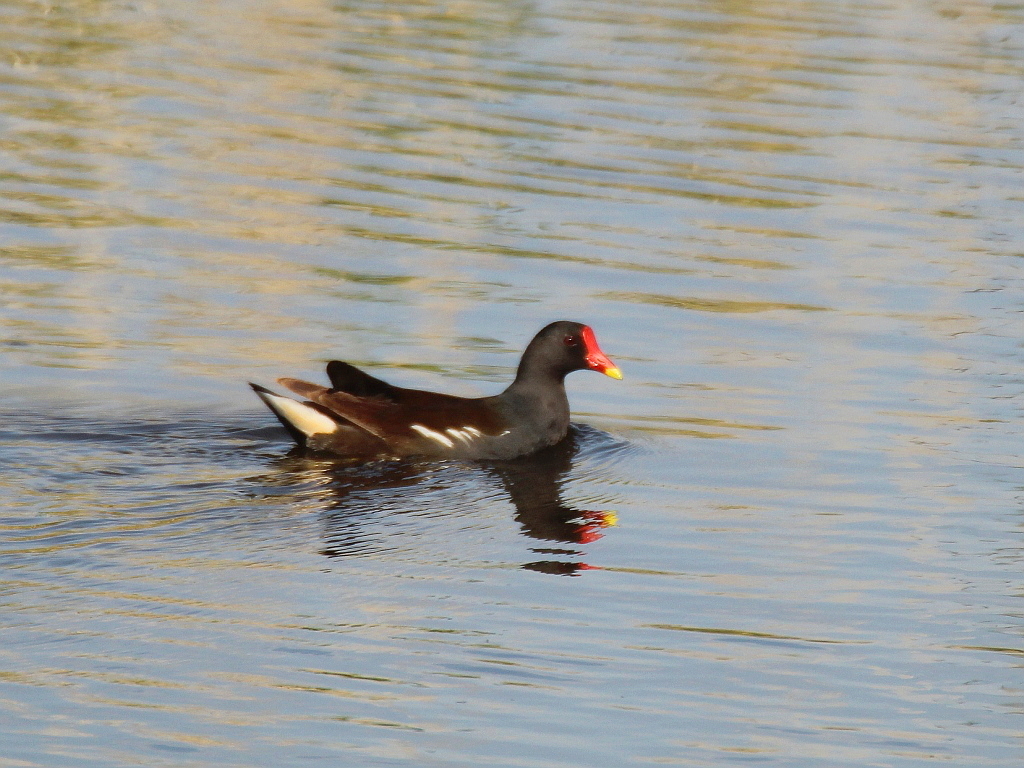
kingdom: Animalia
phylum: Chordata
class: Aves
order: Gruiformes
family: Rallidae
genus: Gallinula
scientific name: Gallinula chloropus
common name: Common moorhen
